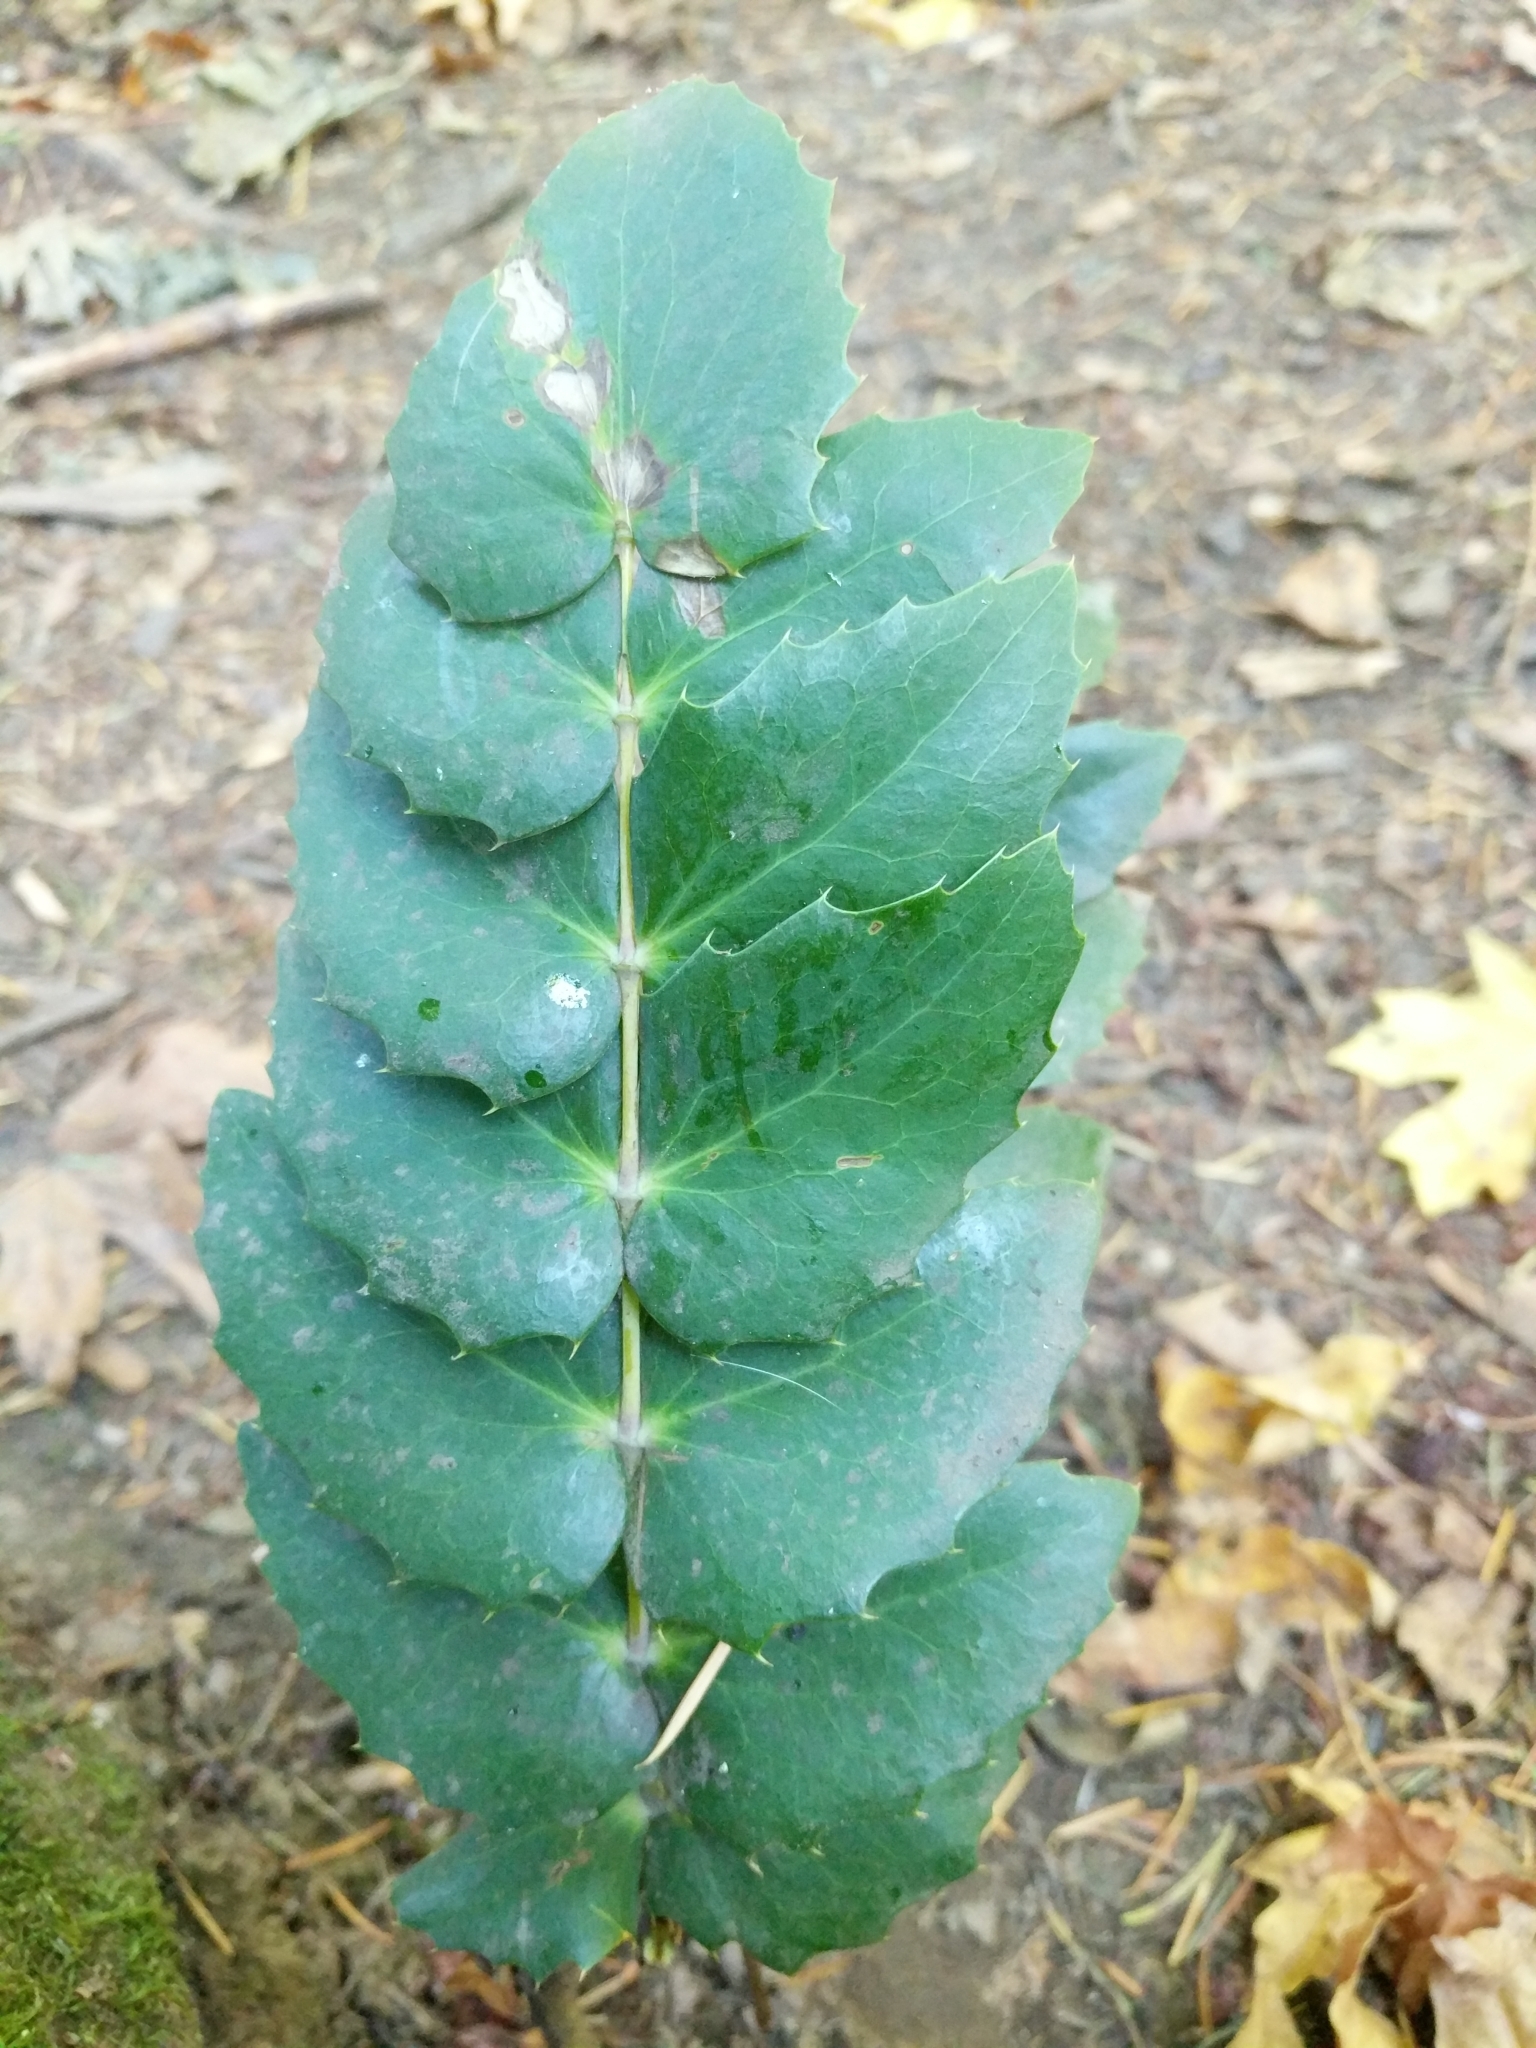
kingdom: Plantae
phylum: Tracheophyta
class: Magnoliopsida
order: Ranunculales
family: Berberidaceae
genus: Mahonia
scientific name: Mahonia nervosa
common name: Cascade oregon-grape
